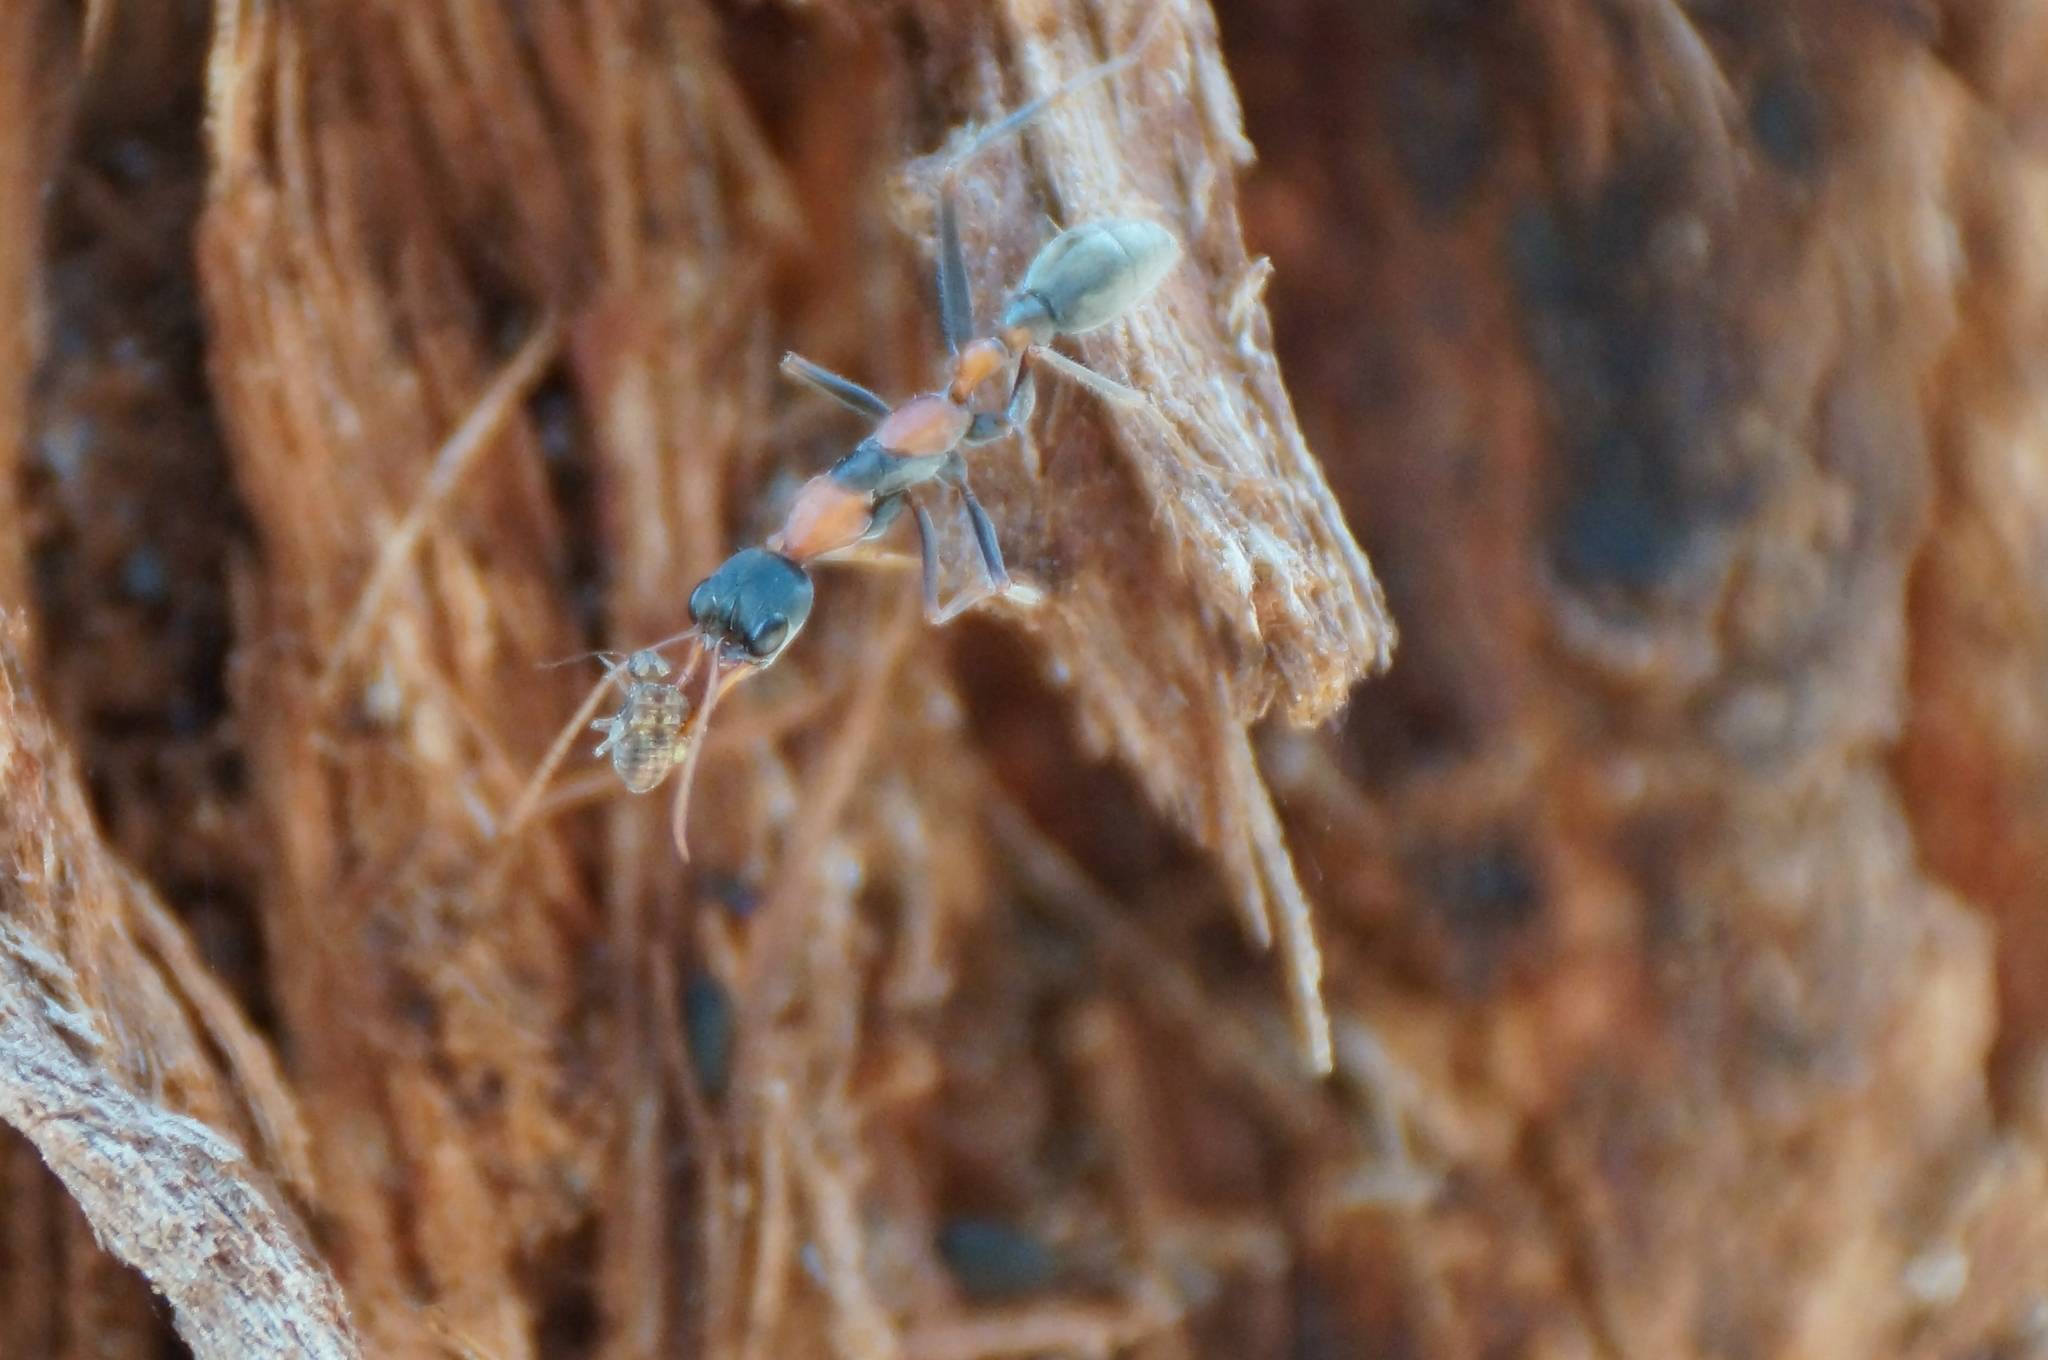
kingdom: Animalia
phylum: Arthropoda
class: Insecta
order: Hymenoptera
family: Formicidae
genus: Myrmecia
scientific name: Myrmecia nigrocincta
